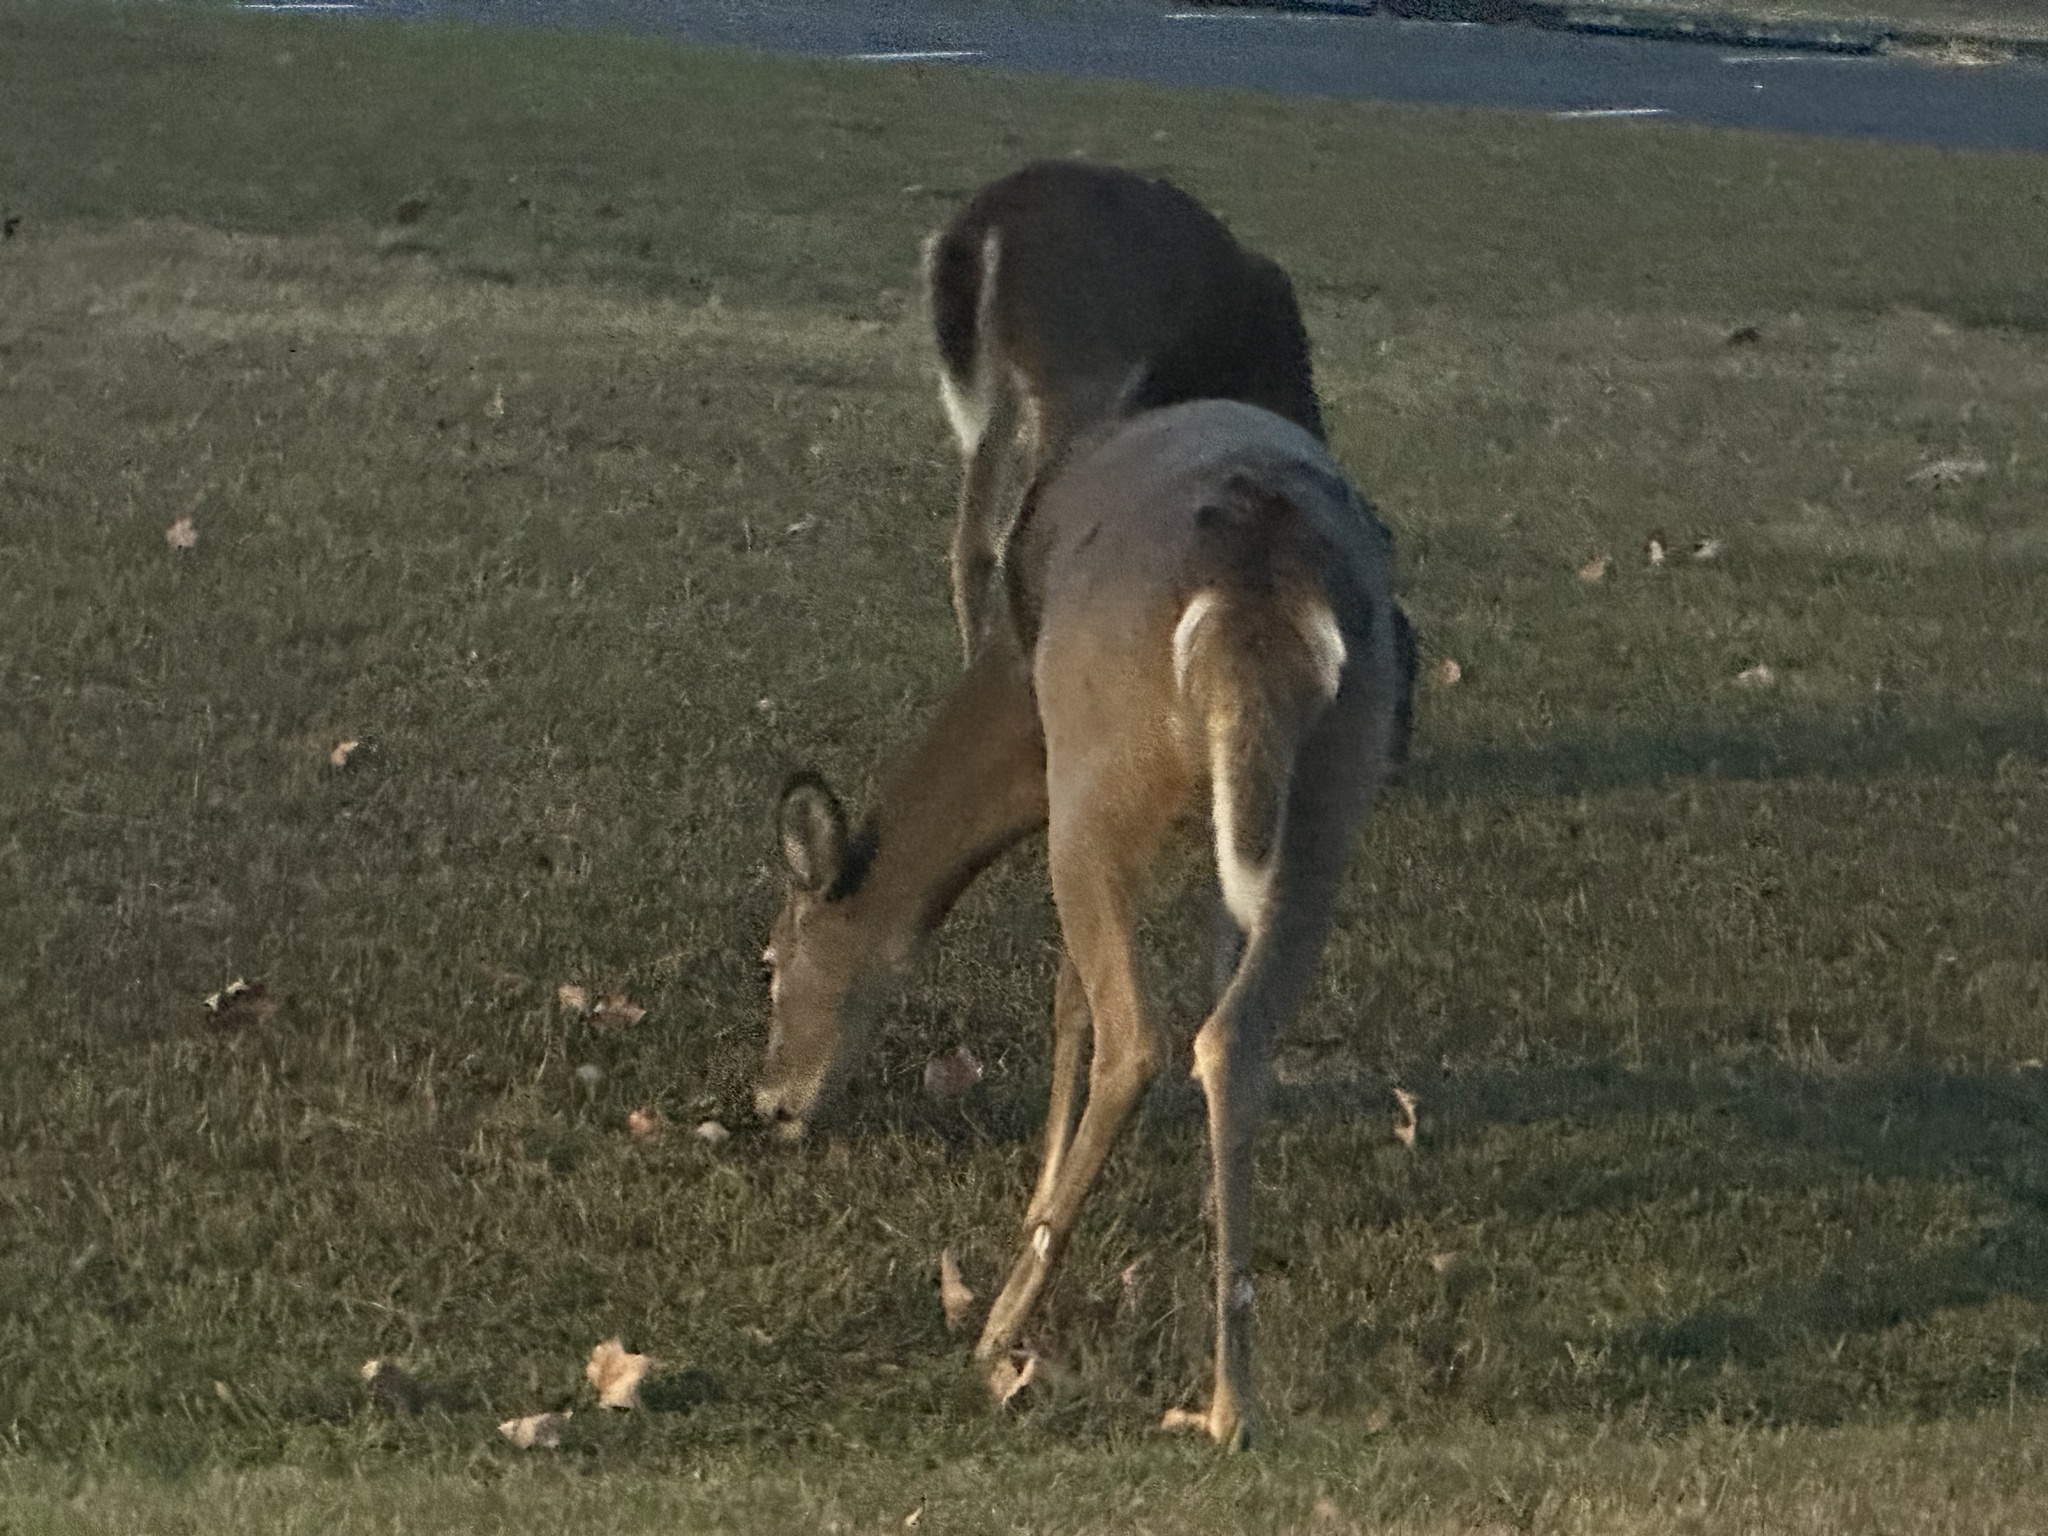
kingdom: Animalia
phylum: Chordata
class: Mammalia
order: Artiodactyla
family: Cervidae
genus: Odocoileus
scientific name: Odocoileus virginianus
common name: White-tailed deer
